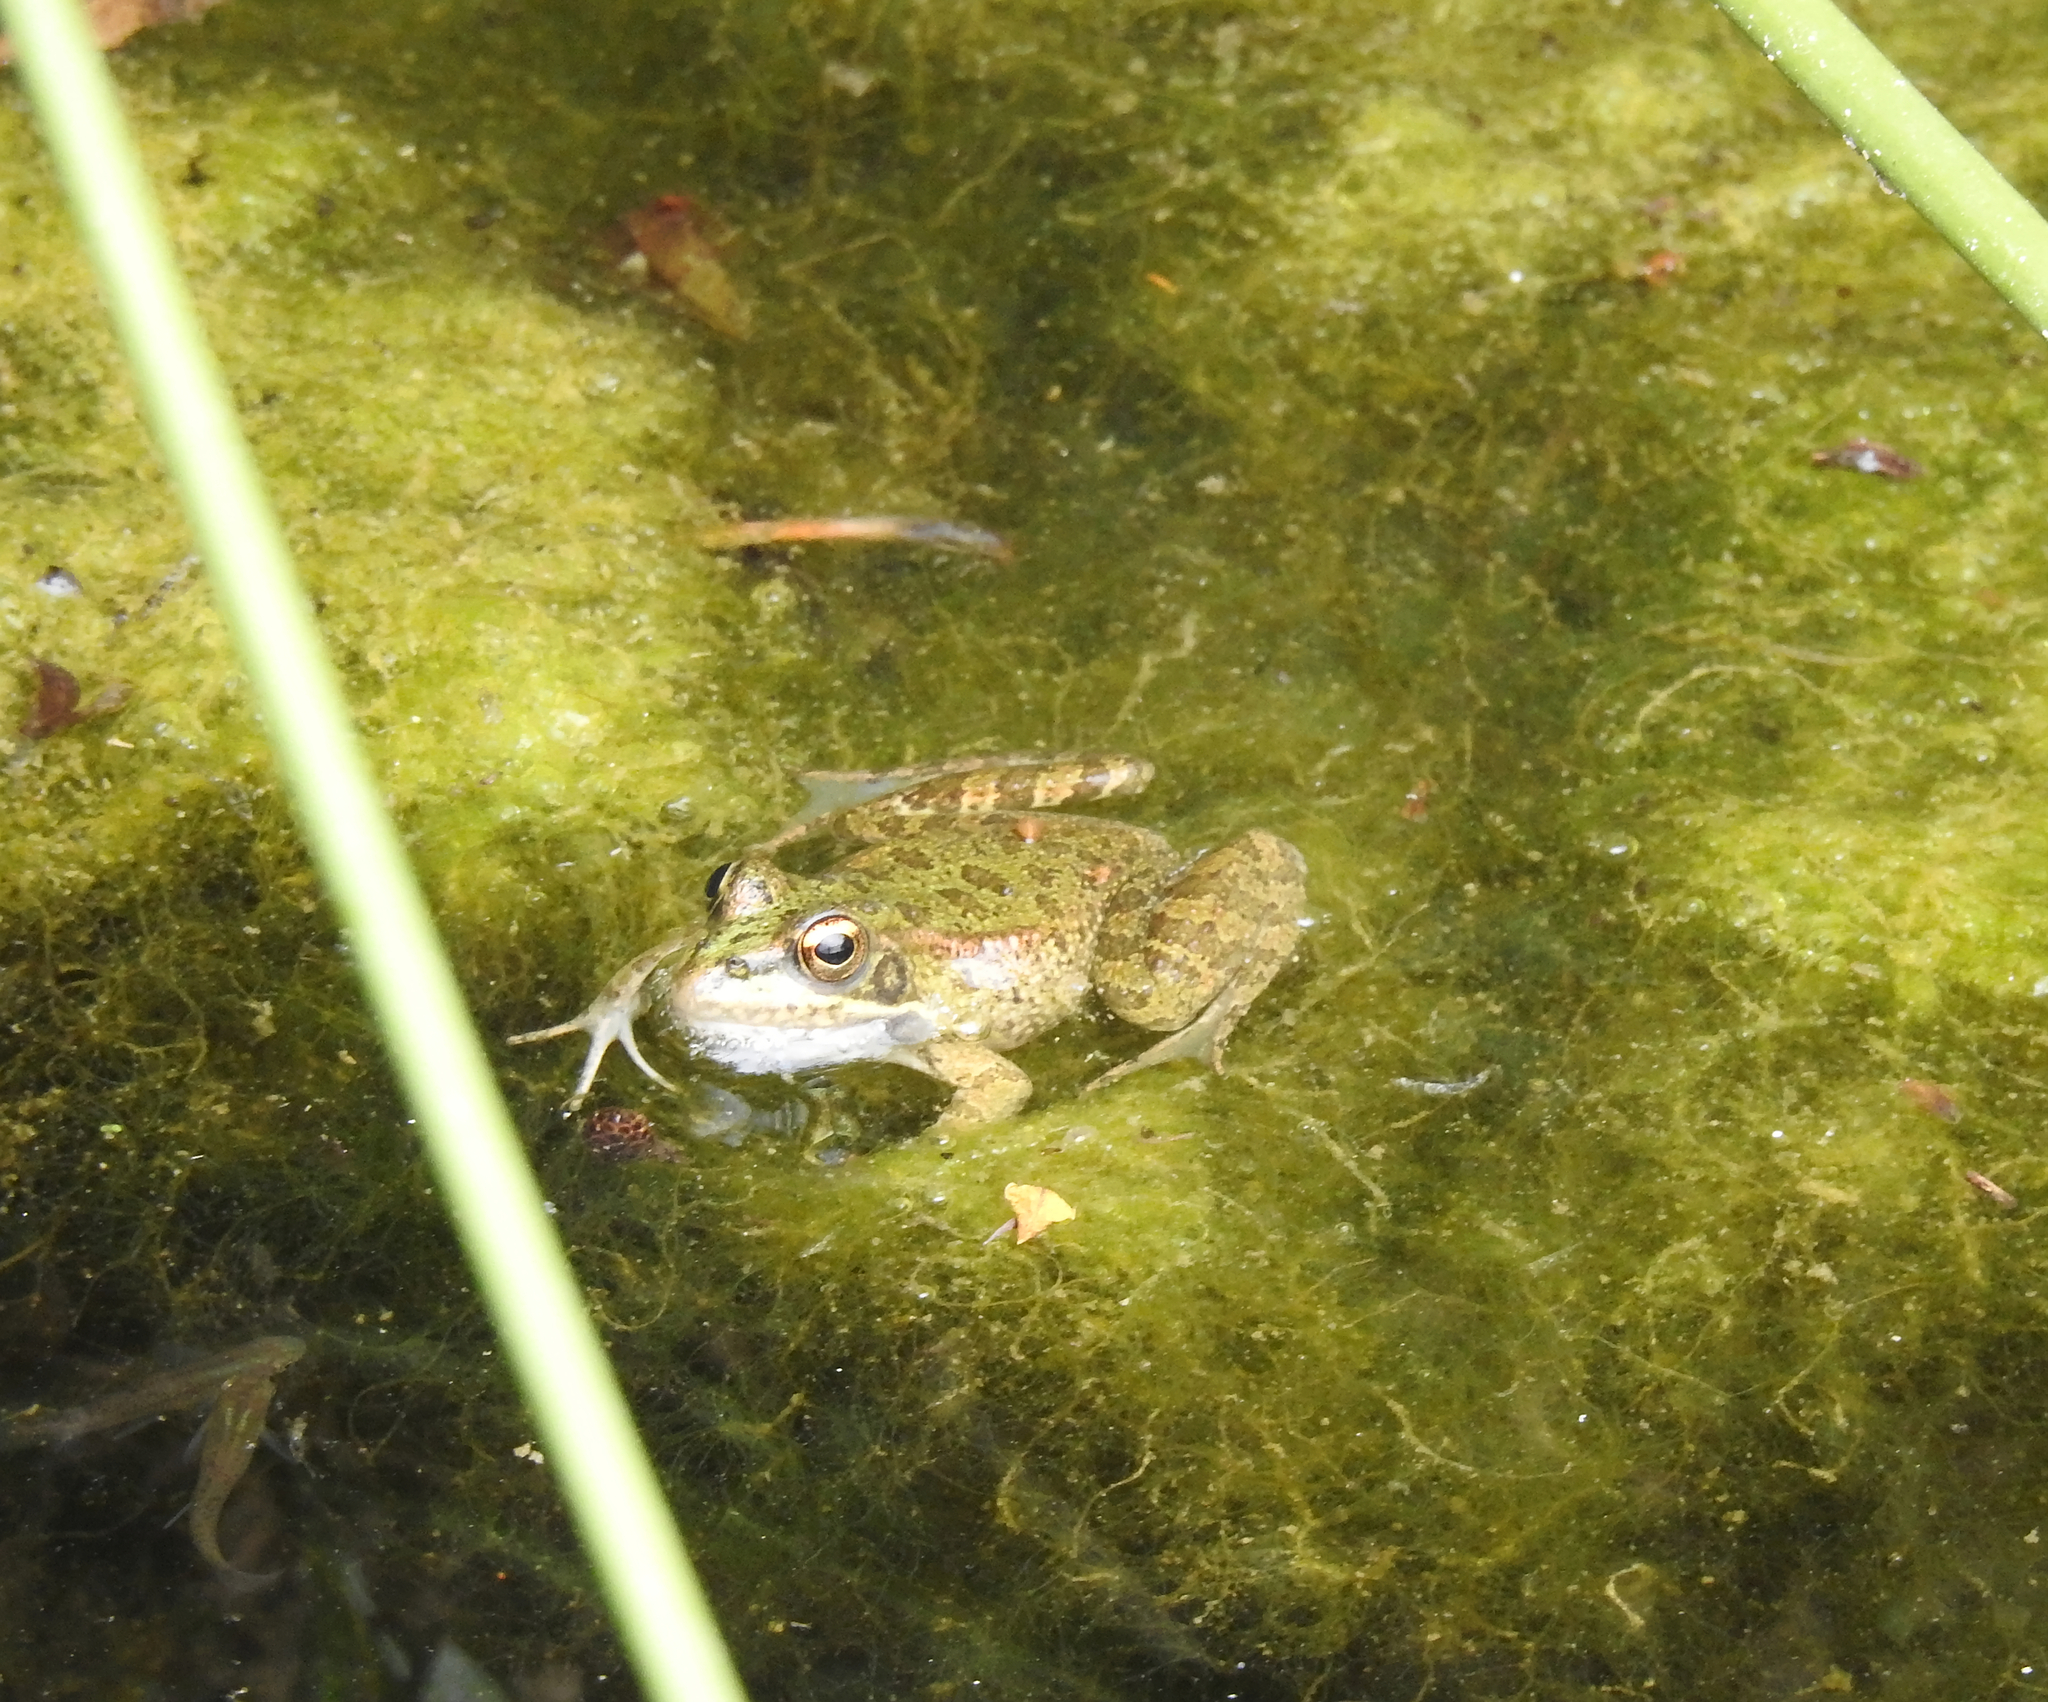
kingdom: Animalia
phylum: Chordata
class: Amphibia
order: Anura
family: Ranidae
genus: Pelophylax
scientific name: Pelophylax perezi
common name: Perez's frog
